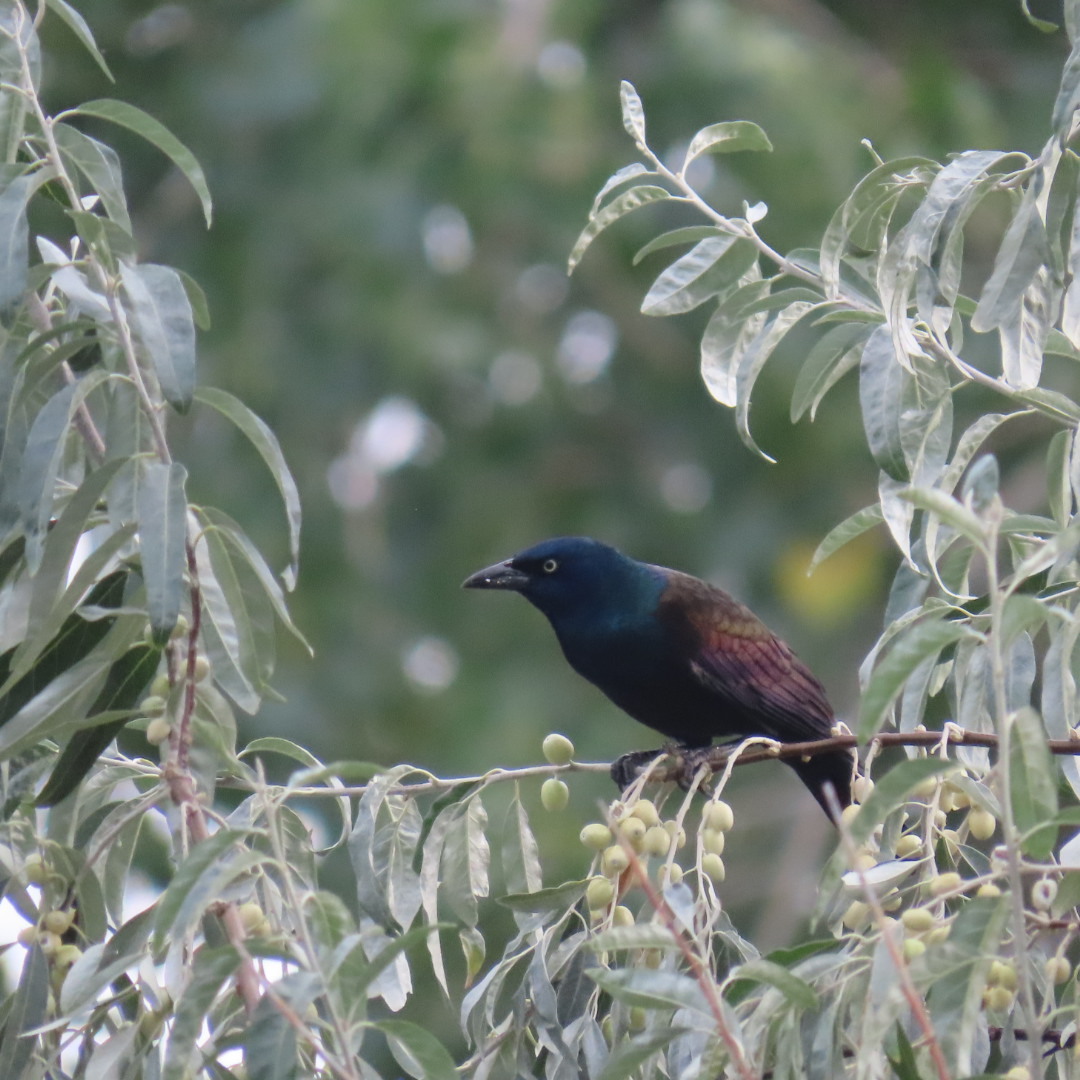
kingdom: Animalia
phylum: Chordata
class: Aves
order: Passeriformes
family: Icteridae
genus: Quiscalus
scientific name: Quiscalus quiscula
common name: Common grackle
